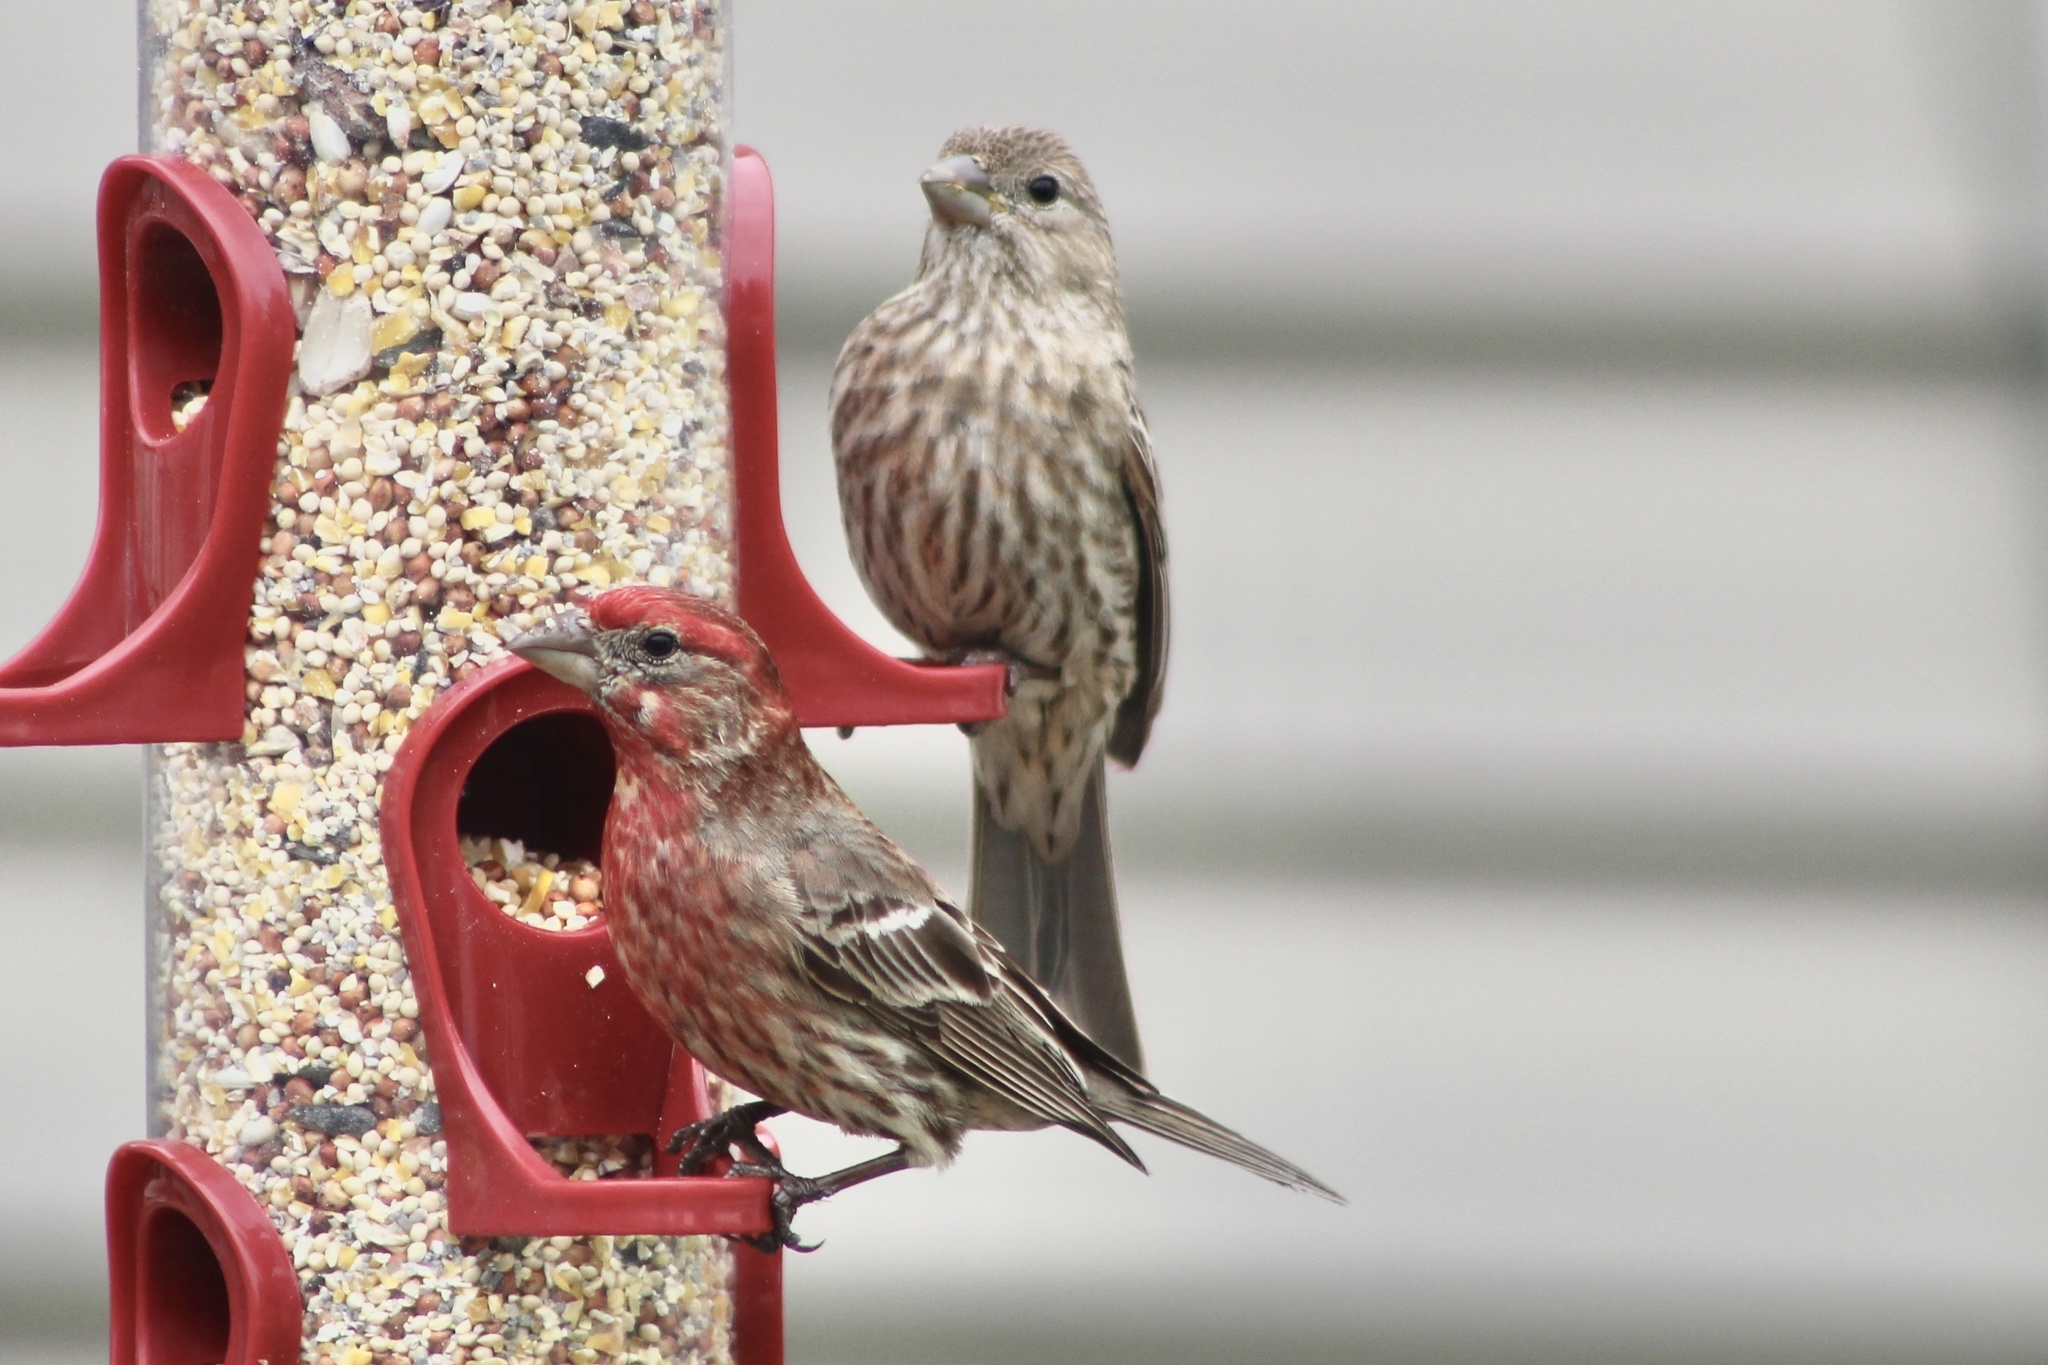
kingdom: Animalia
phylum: Chordata
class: Aves
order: Passeriformes
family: Fringillidae
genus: Haemorhous
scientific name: Haemorhous mexicanus
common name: House finch
